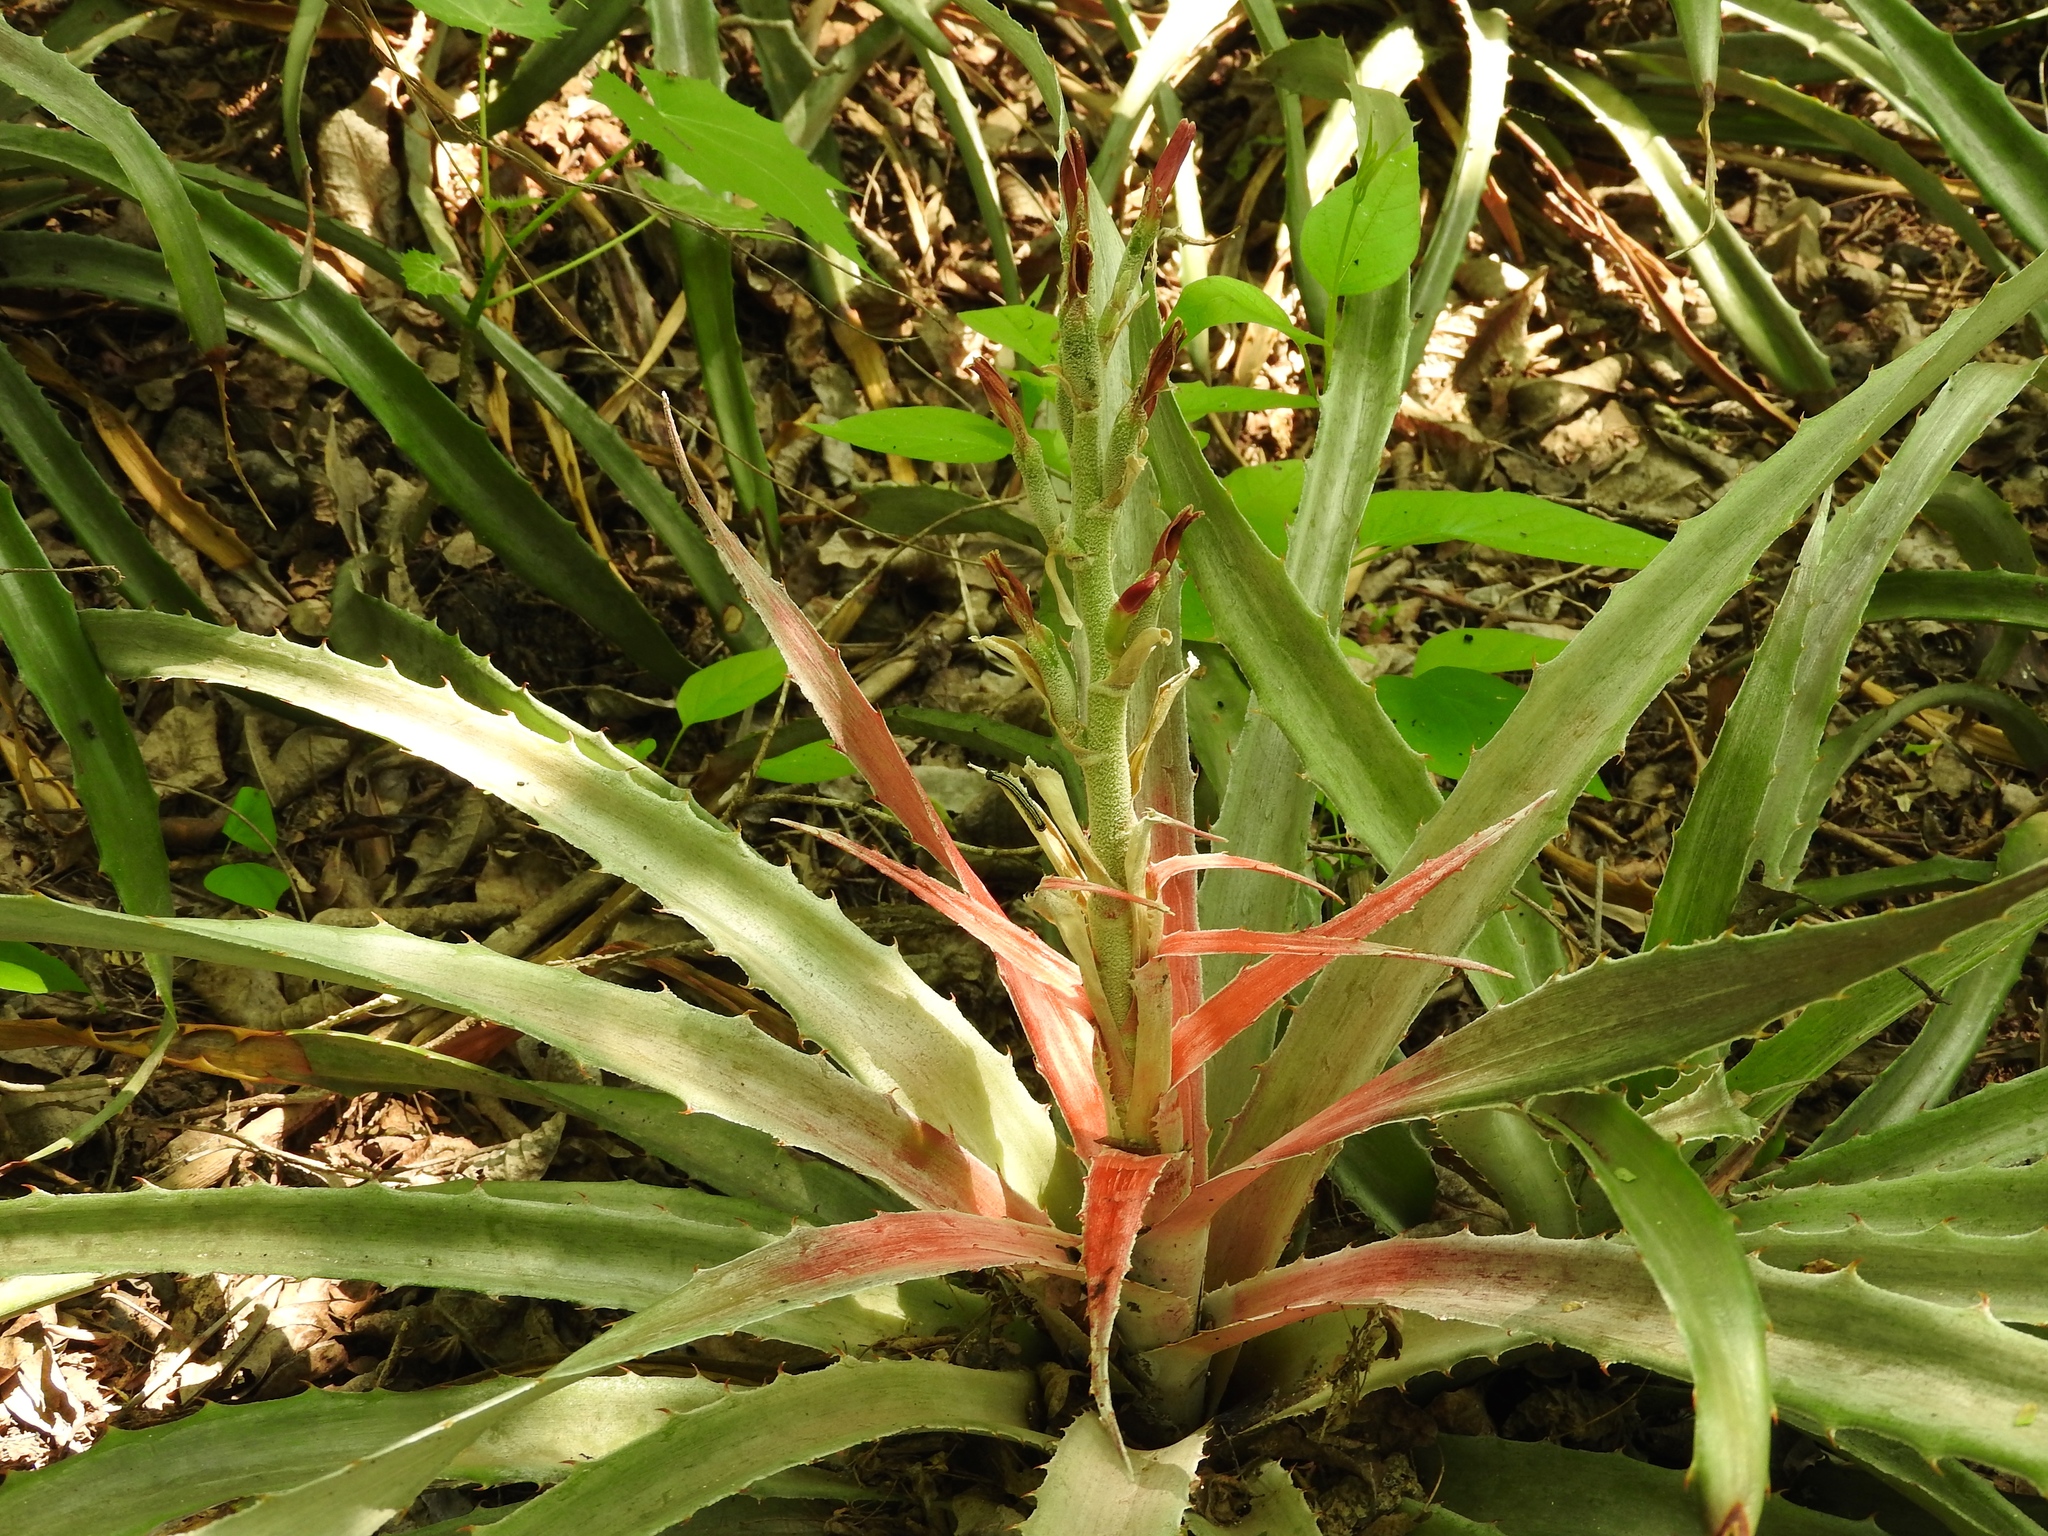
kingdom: Plantae
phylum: Tracheophyta
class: Liliopsida
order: Poales
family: Bromeliaceae
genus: Bromelia
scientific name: Bromelia pinguin
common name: Pinguin
